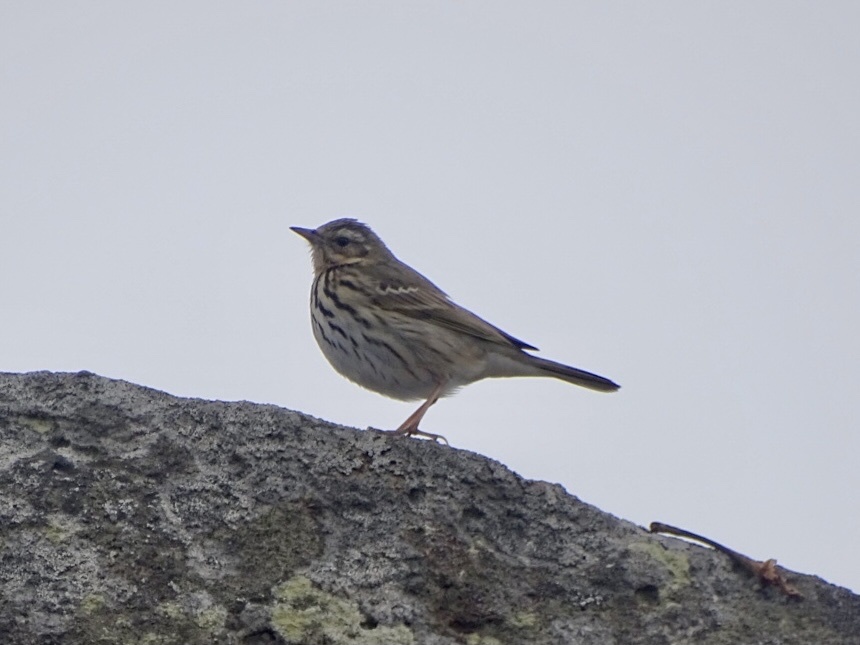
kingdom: Animalia
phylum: Chordata
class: Aves
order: Passeriformes
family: Motacillidae
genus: Anthus
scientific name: Anthus hodgsoni
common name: Olive-backed pipit
